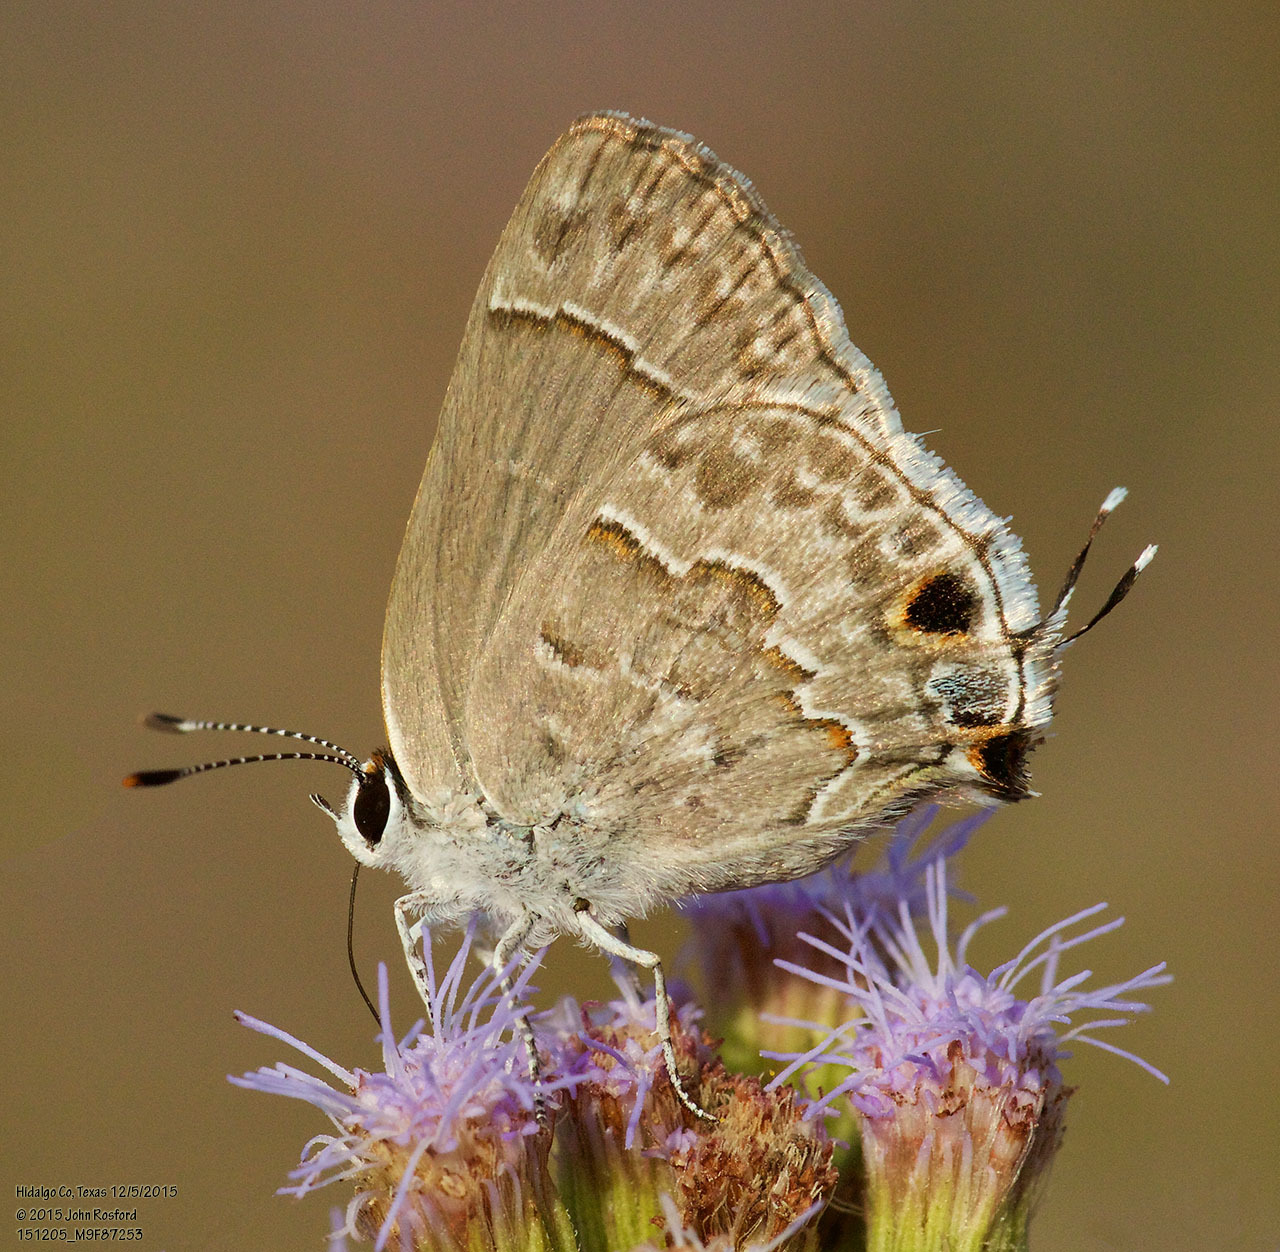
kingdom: Animalia
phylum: Arthropoda
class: Insecta
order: Lepidoptera
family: Lycaenidae
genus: Strymon
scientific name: Strymon alea
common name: Lacey's scrub-hairstreak
